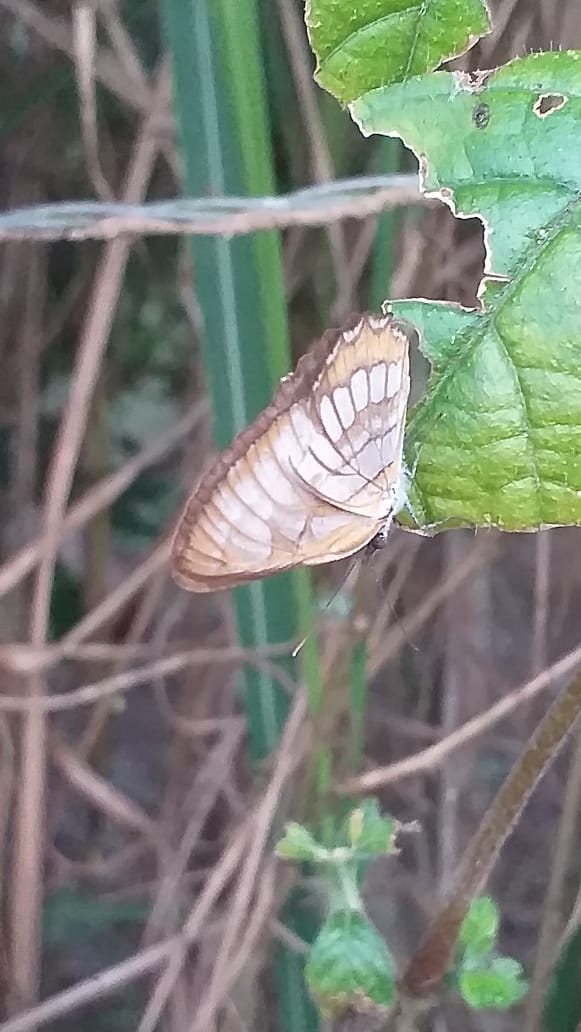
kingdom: Animalia
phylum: Arthropoda
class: Insecta
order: Lepidoptera
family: Nymphalidae
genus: Mestra
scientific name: Mestra hersilia
